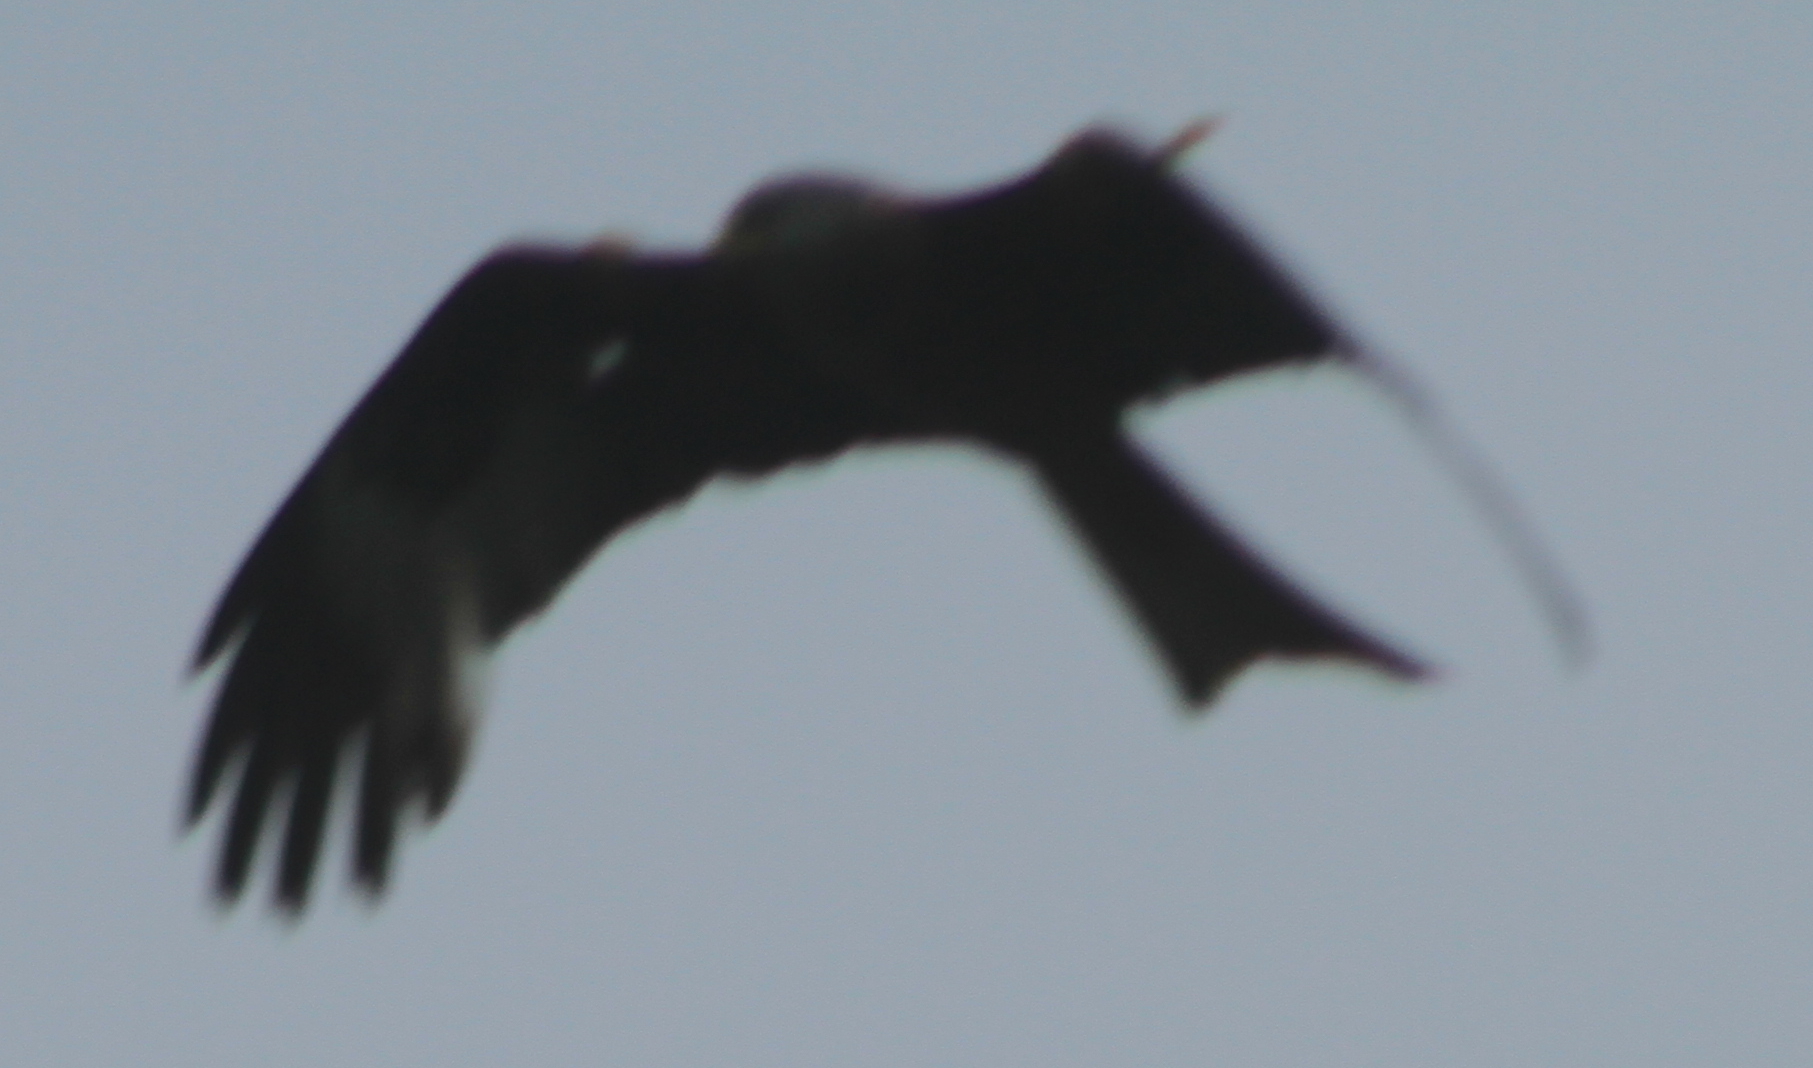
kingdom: Animalia
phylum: Chordata
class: Aves
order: Accipitriformes
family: Accipitridae
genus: Milvus
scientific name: Milvus milvus
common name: Red kite
